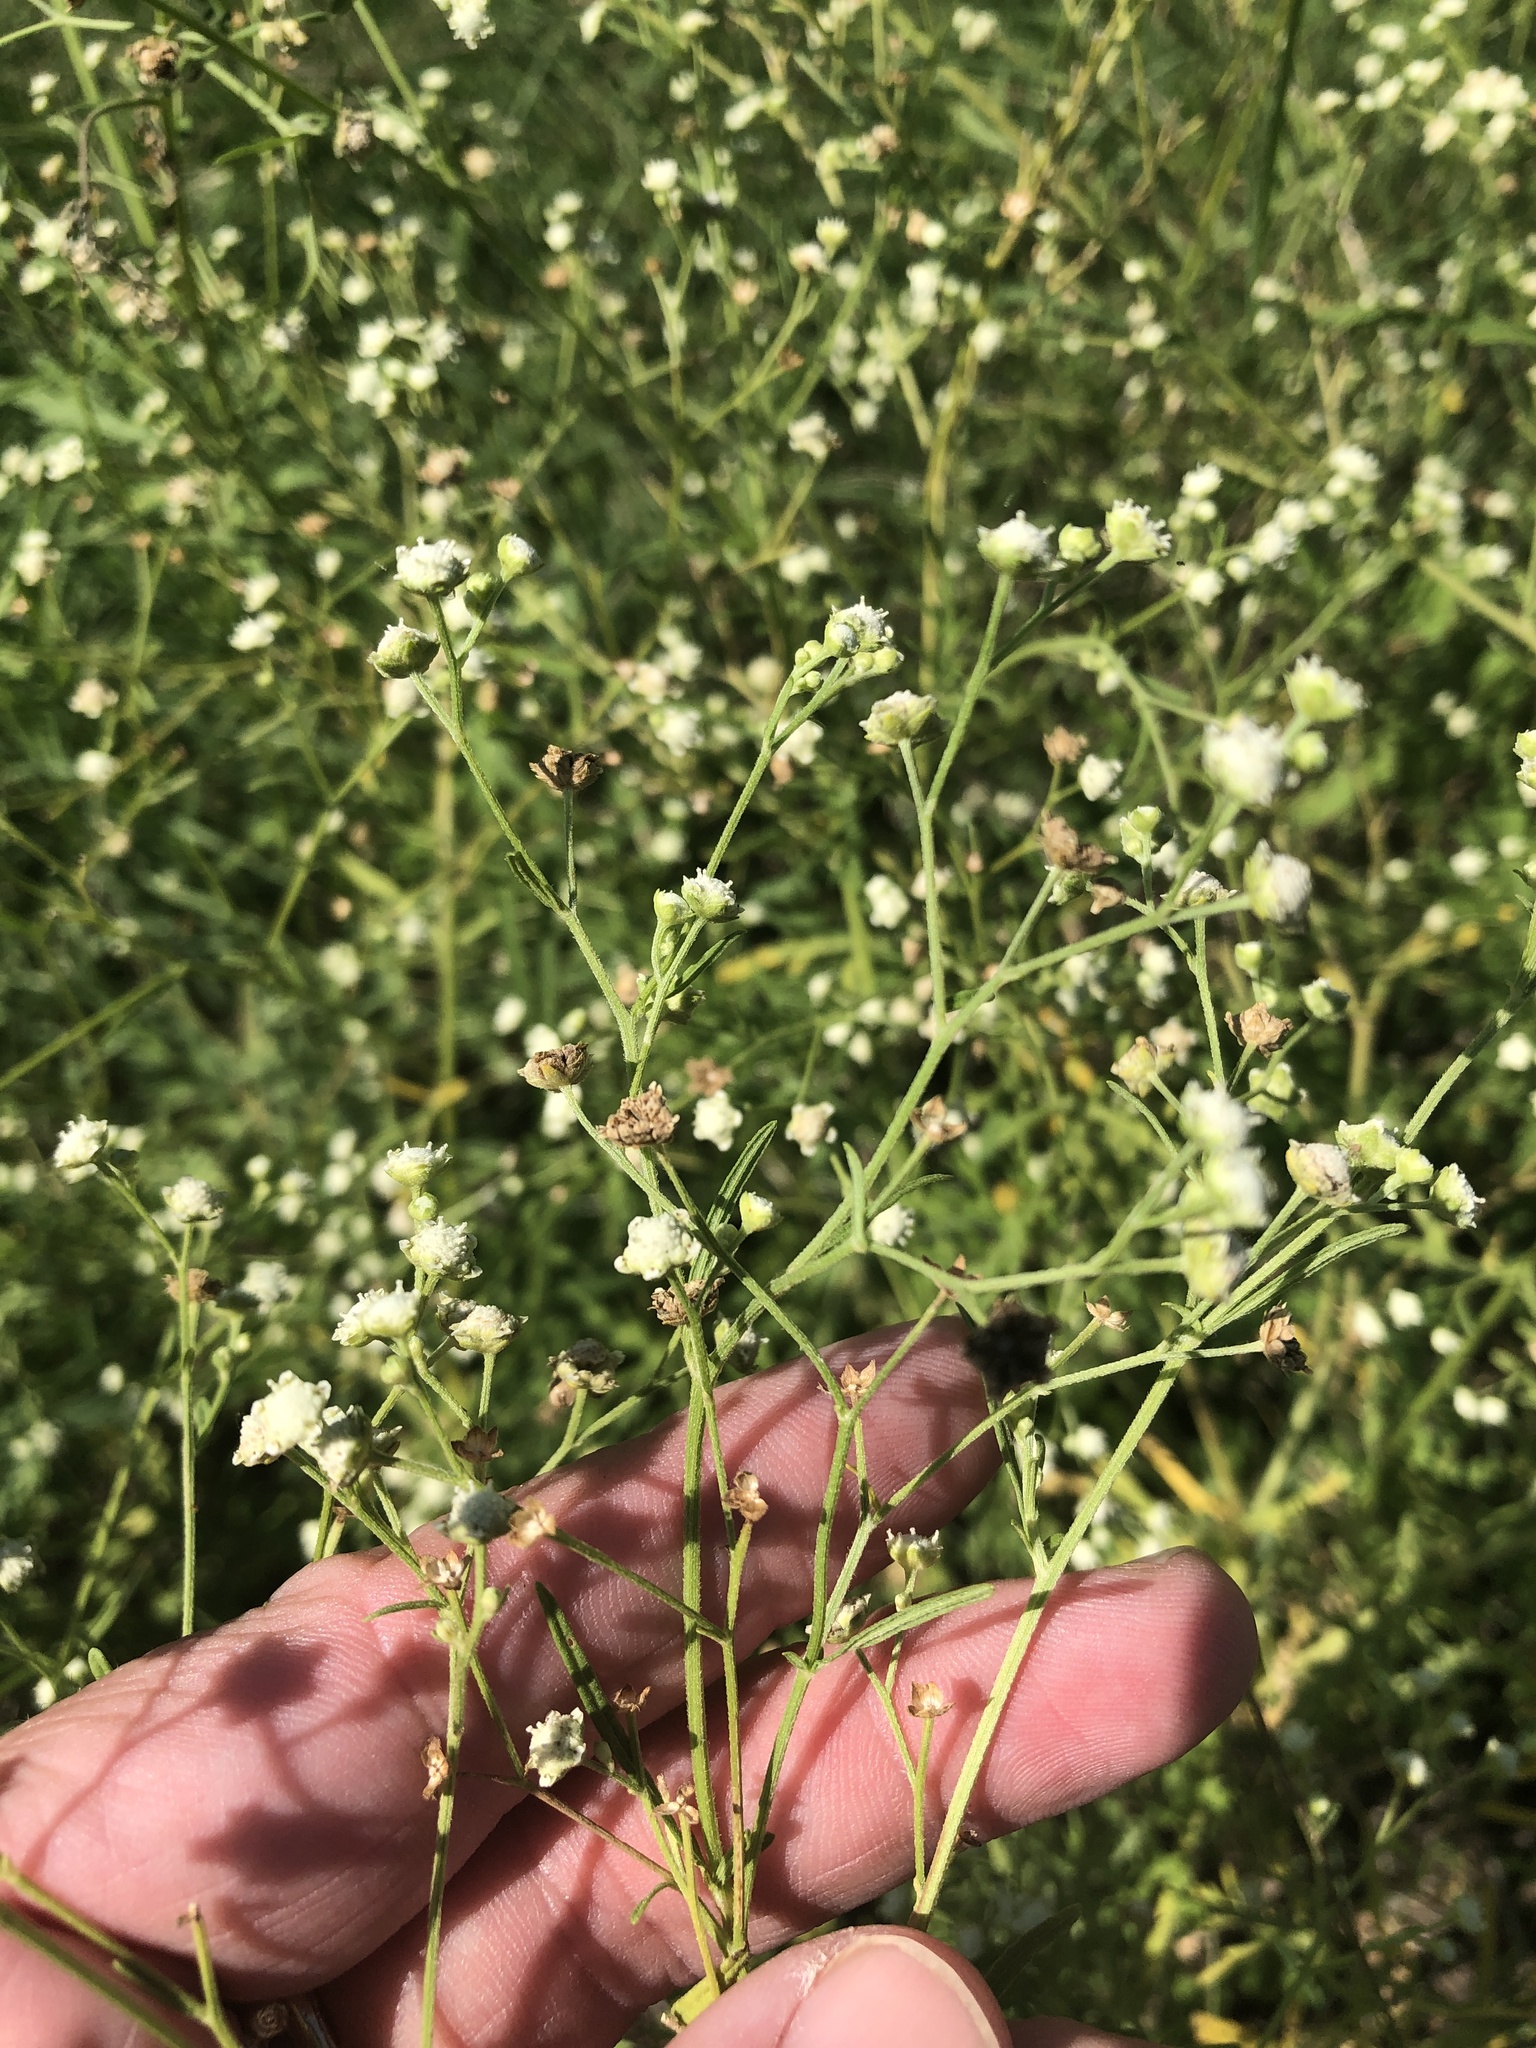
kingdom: Plantae
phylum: Tracheophyta
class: Magnoliopsida
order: Asterales
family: Asteraceae
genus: Parthenium
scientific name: Parthenium hysterophorus
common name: Santa maria feverfew
